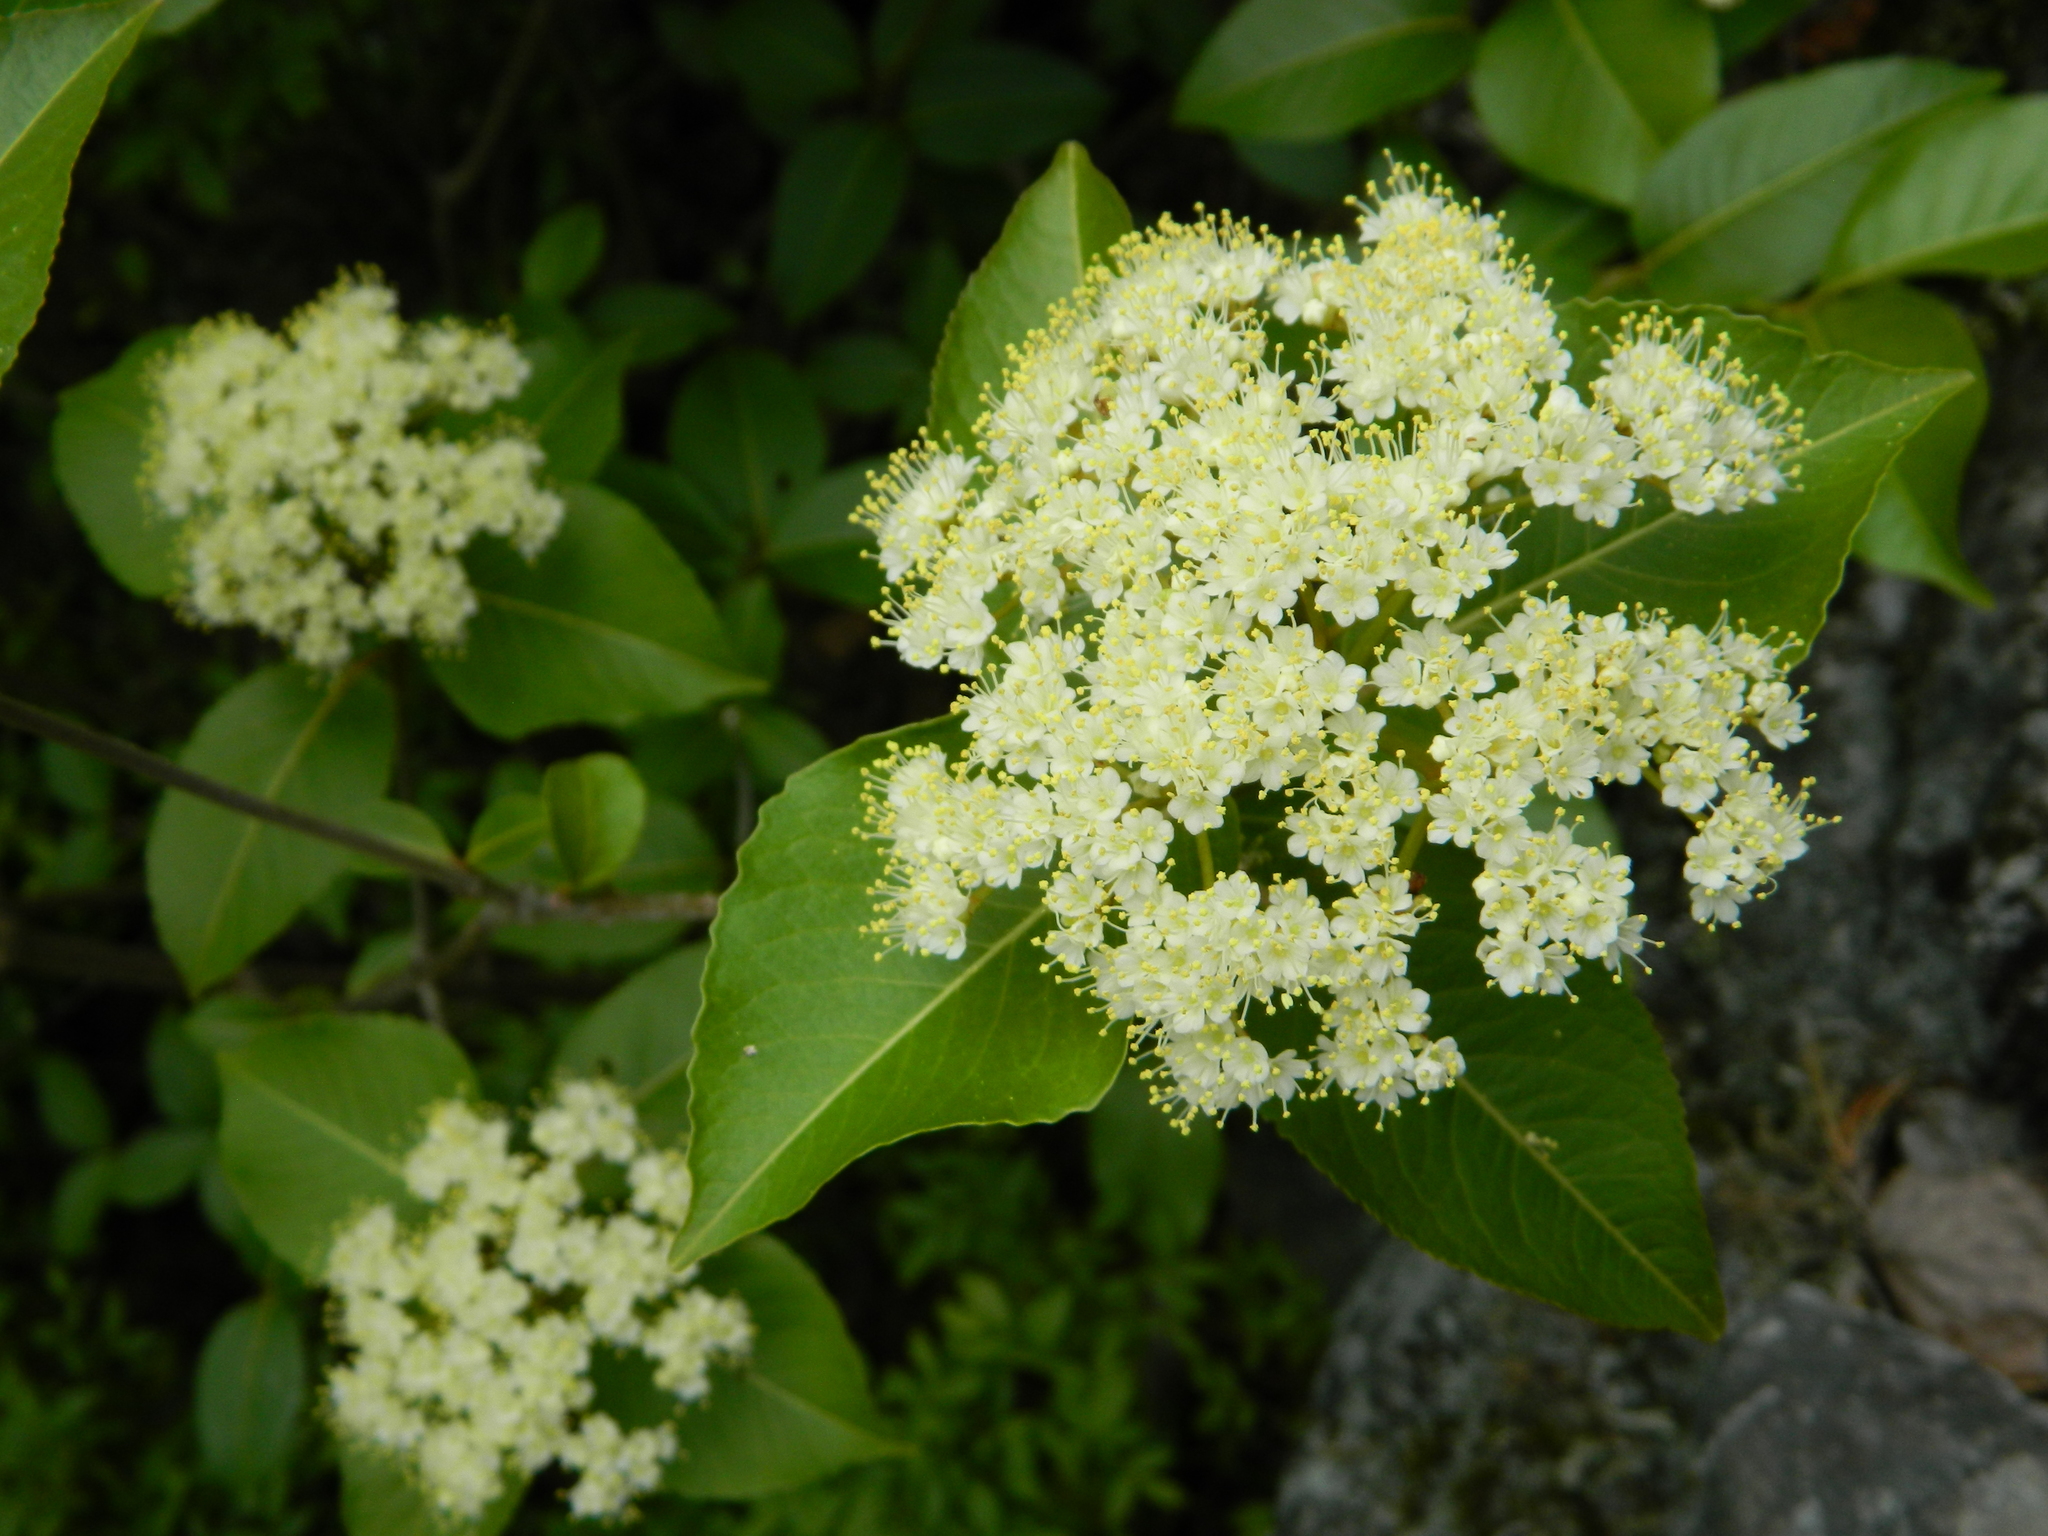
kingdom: Plantae
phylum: Tracheophyta
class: Magnoliopsida
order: Dipsacales
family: Viburnaceae
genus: Viburnum
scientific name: Viburnum cassinoides
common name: Swamp haw
